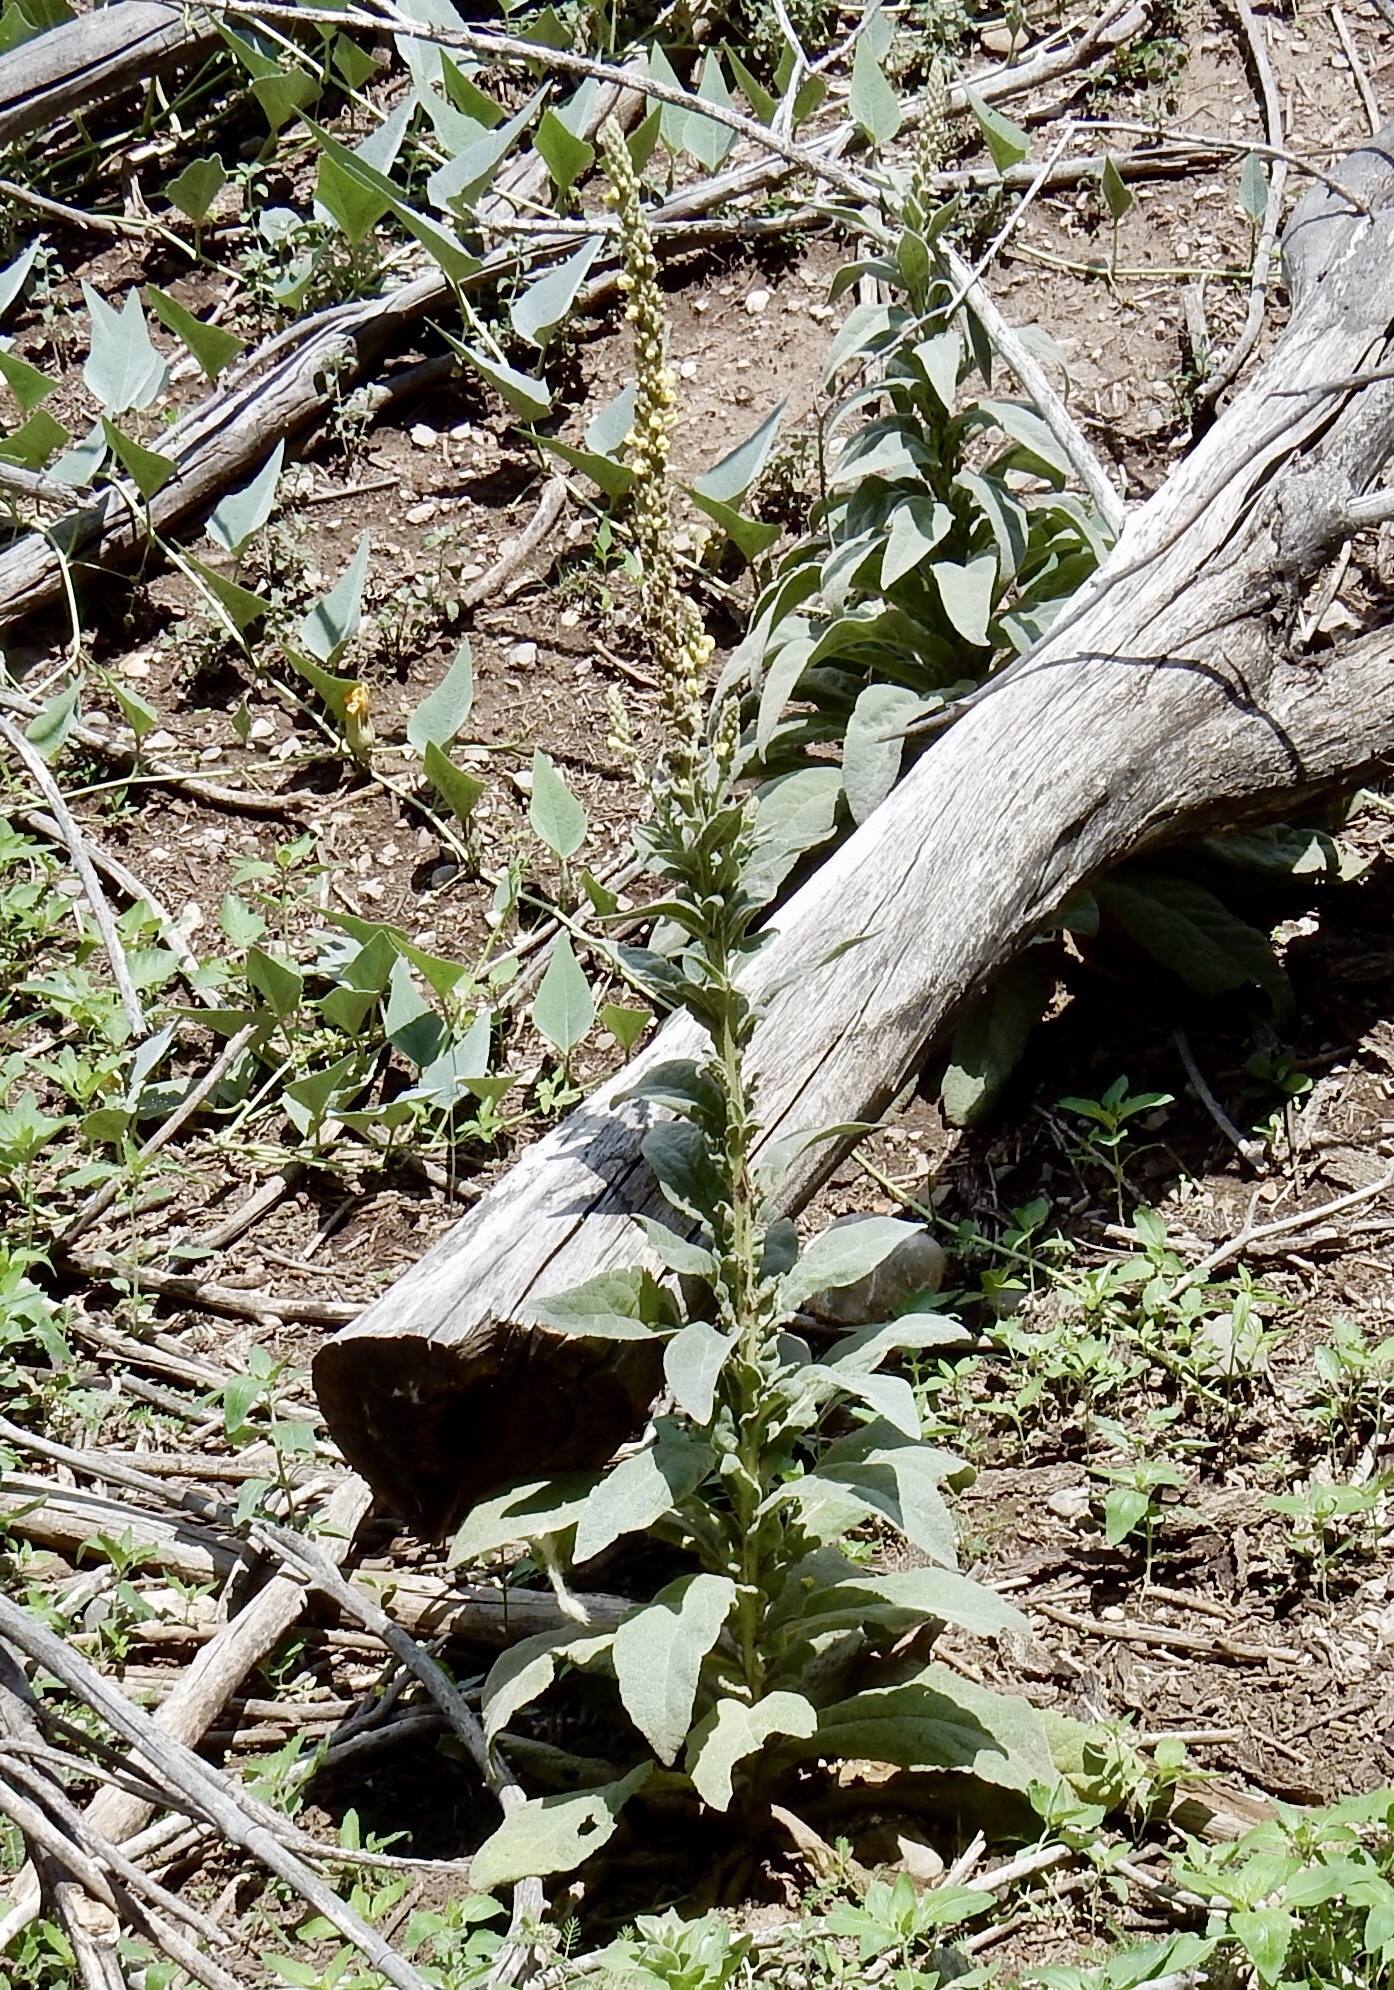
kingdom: Plantae
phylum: Tracheophyta
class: Magnoliopsida
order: Lamiales
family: Scrophulariaceae
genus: Verbascum
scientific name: Verbascum thapsus
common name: Common mullein
